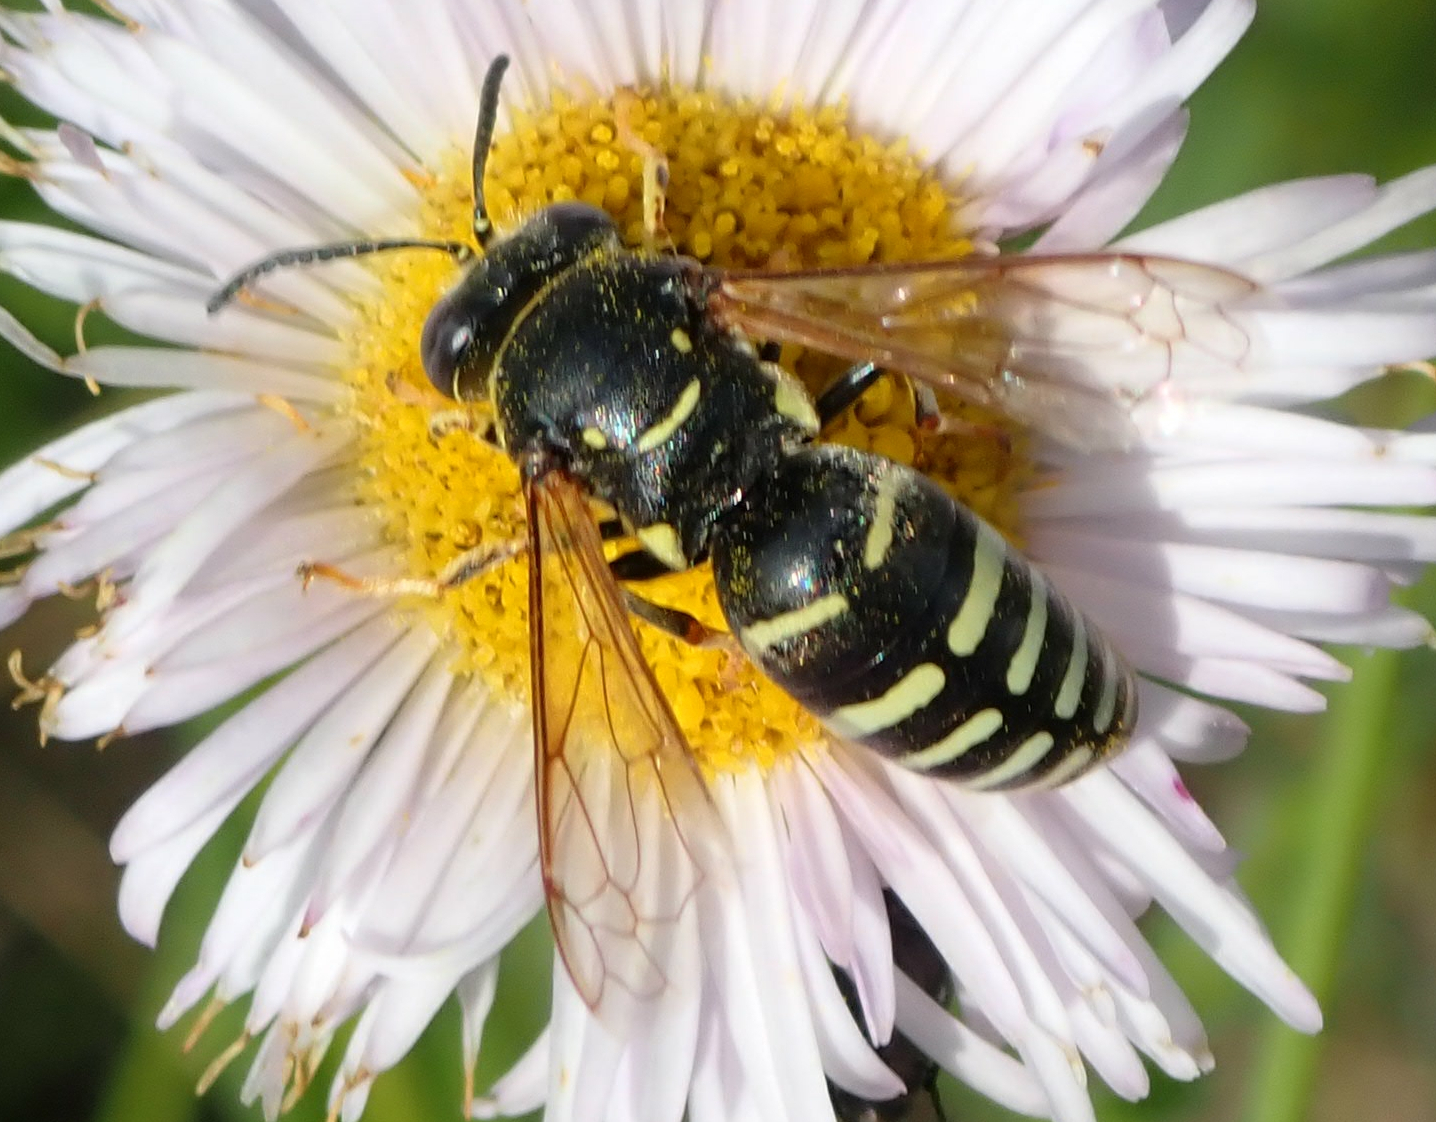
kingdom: Animalia
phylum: Arthropoda
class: Insecta
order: Hymenoptera
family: Crabronidae
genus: Bicyrtes
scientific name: Bicyrtes ventralis
